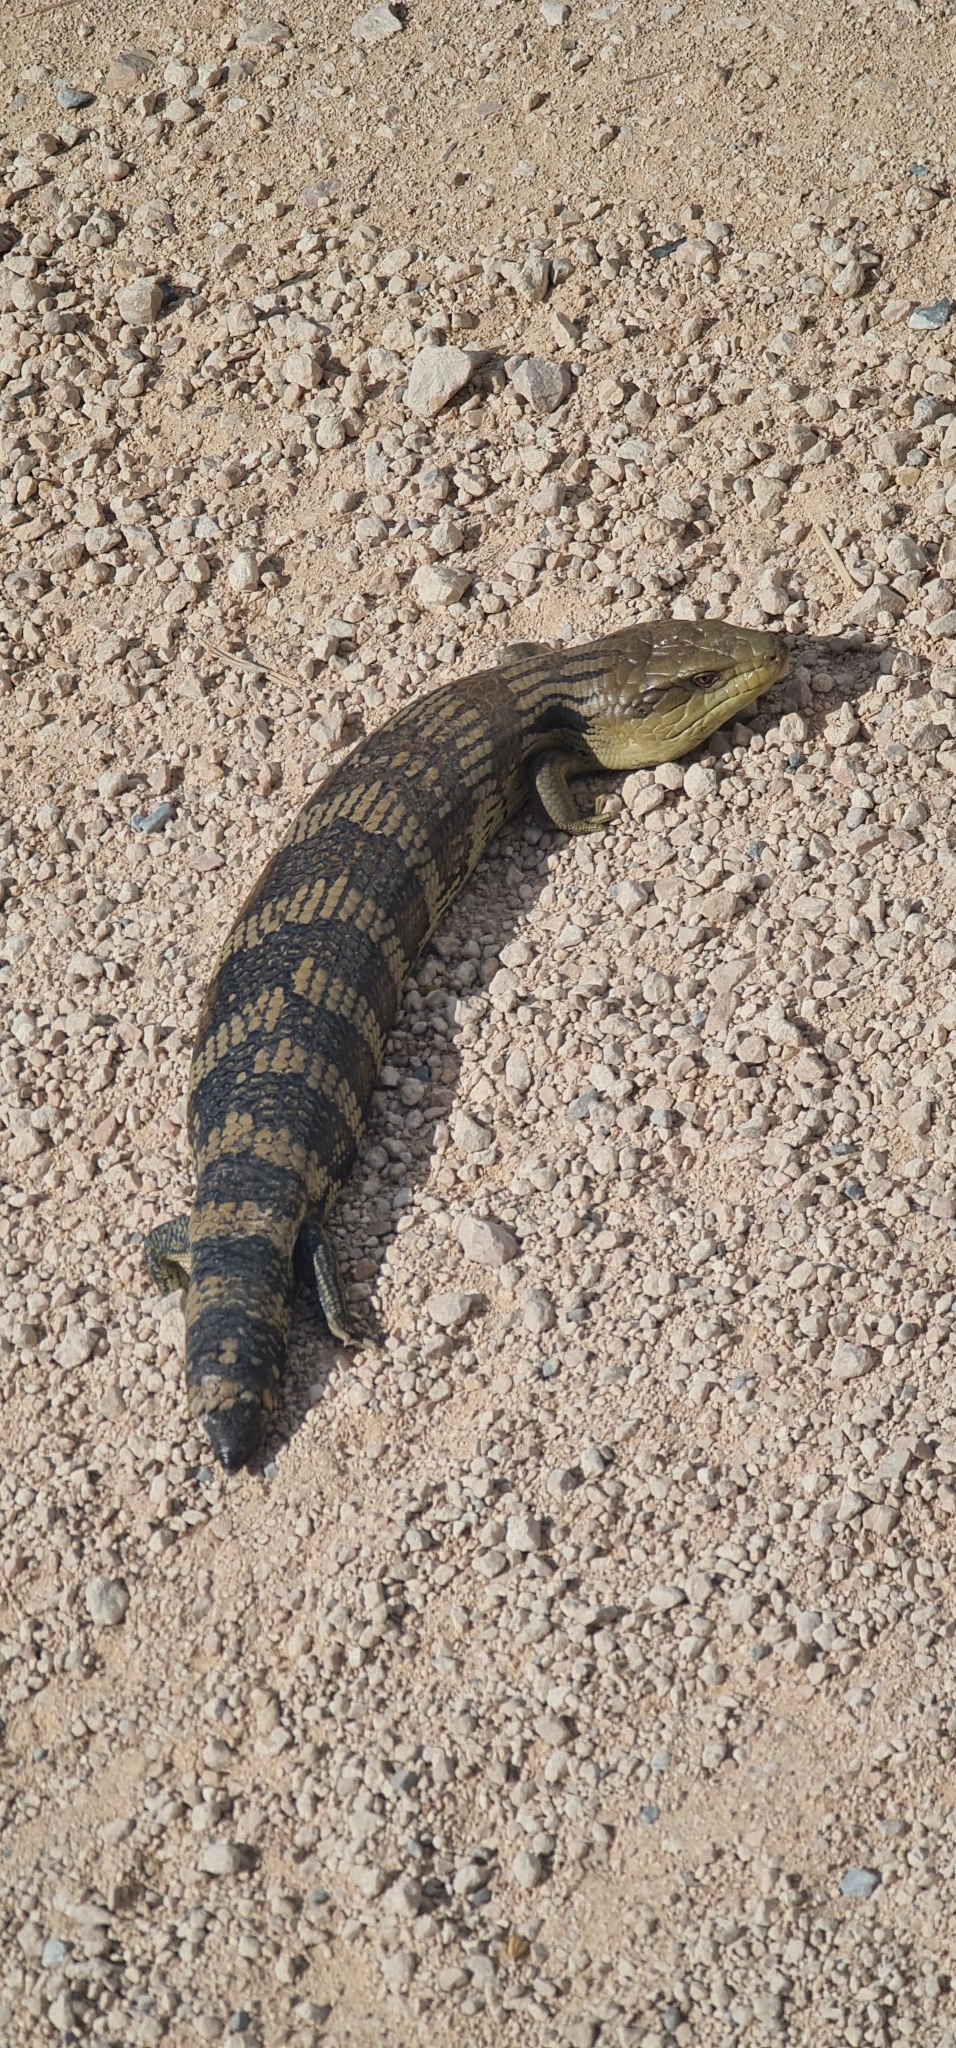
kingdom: Animalia
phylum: Chordata
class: Squamata
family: Scincidae
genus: Tiliqua
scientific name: Tiliqua scincoides
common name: Common bluetongue
